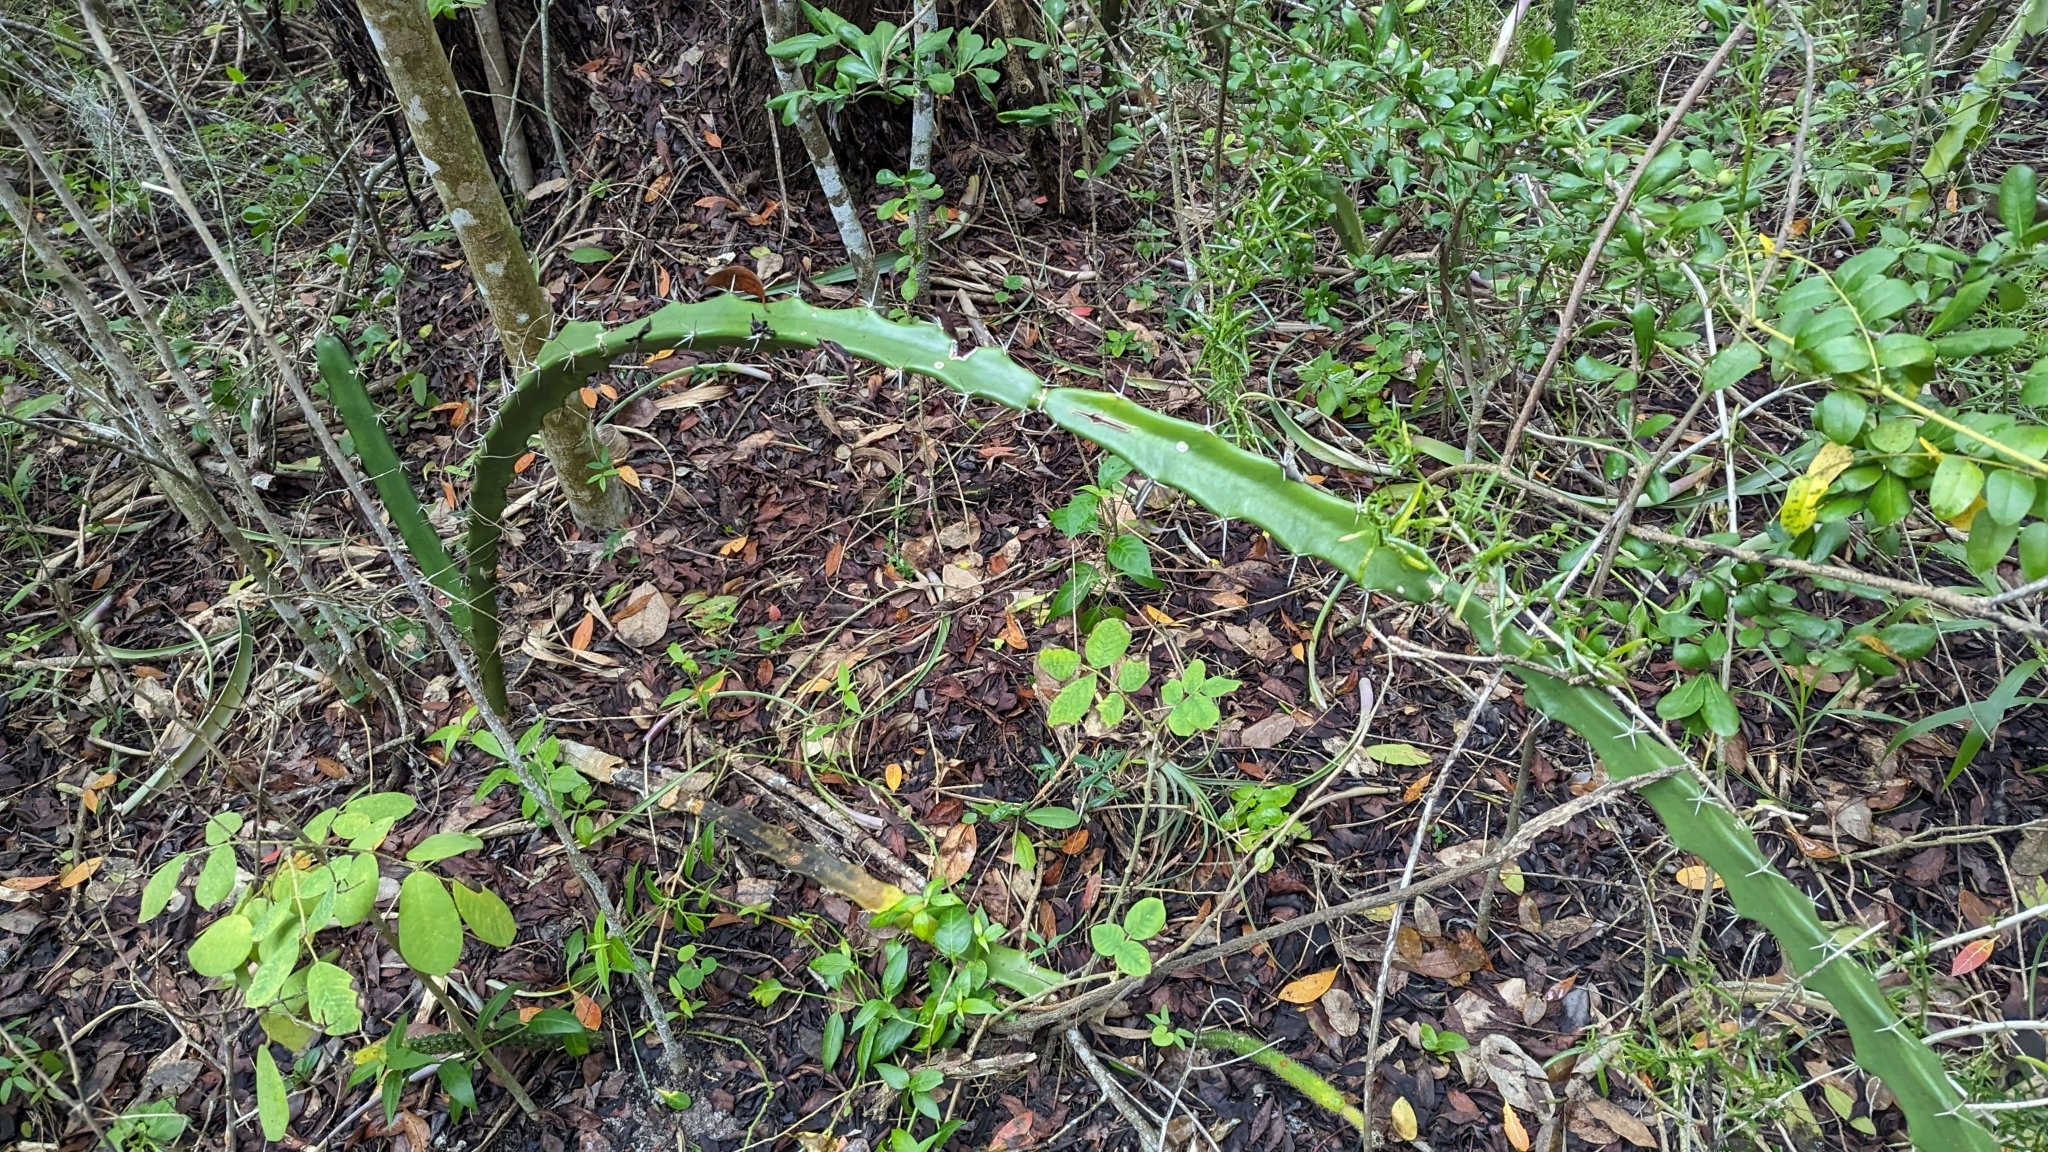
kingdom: Plantae
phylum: Tracheophyta
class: Magnoliopsida
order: Caryophyllales
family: Cactaceae
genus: Acanthocereus
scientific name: Acanthocereus tetragonus
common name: Triangle cactus
